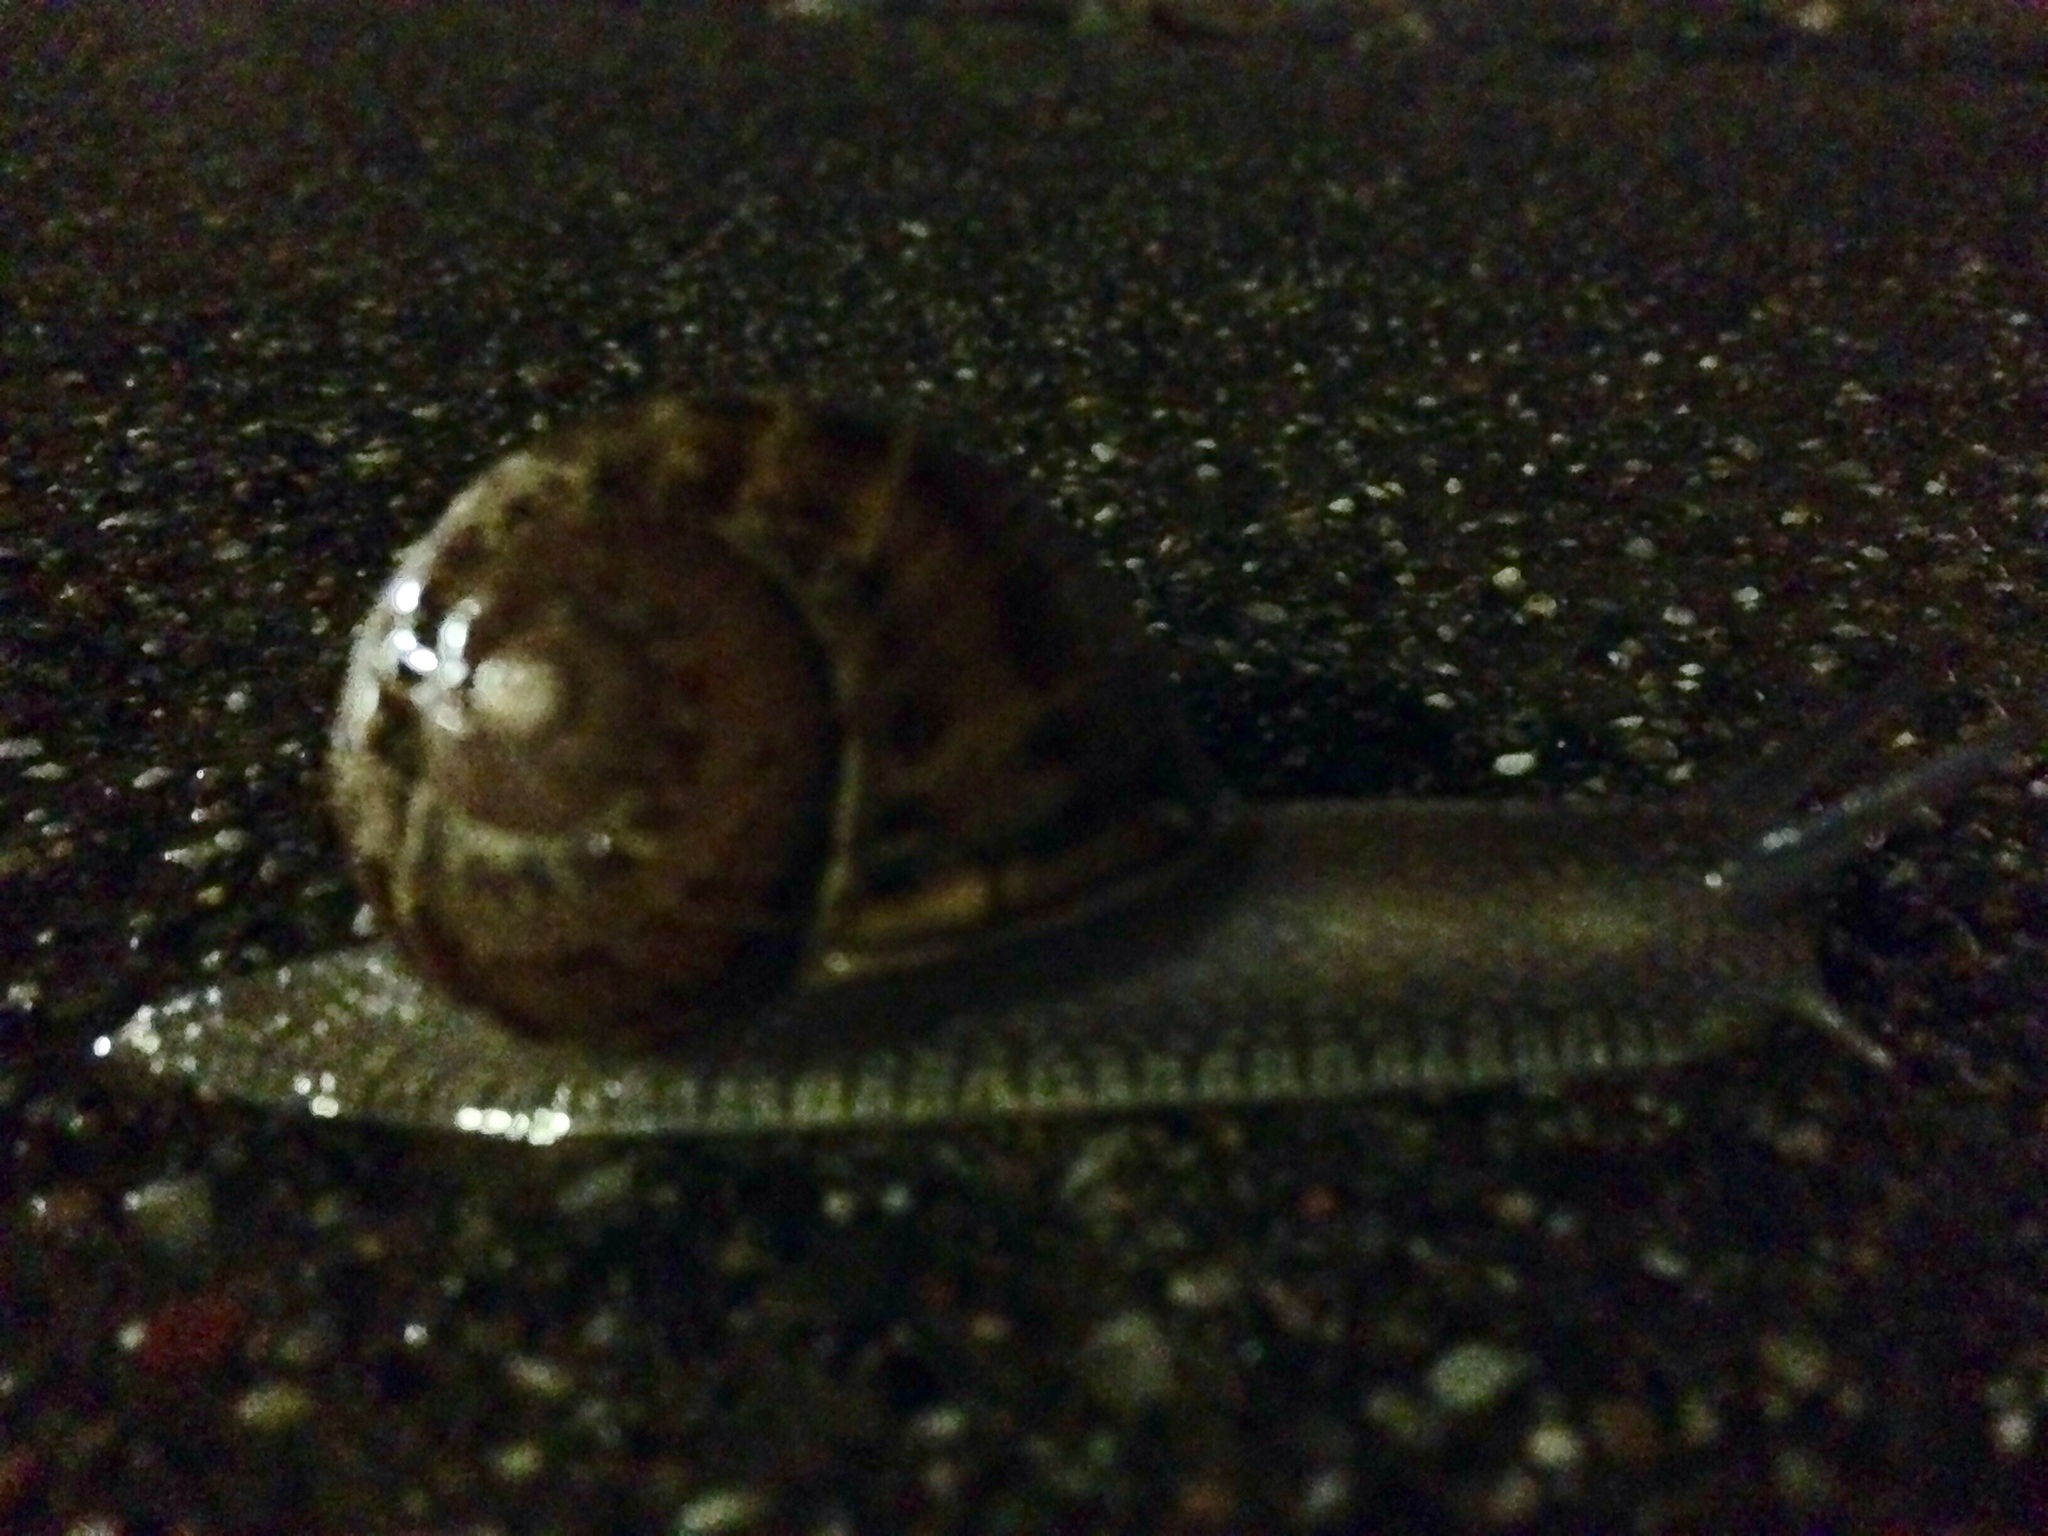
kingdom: Animalia
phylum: Mollusca
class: Gastropoda
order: Stylommatophora
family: Helicidae
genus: Cornu
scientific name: Cornu aspersum
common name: Brown garden snail
